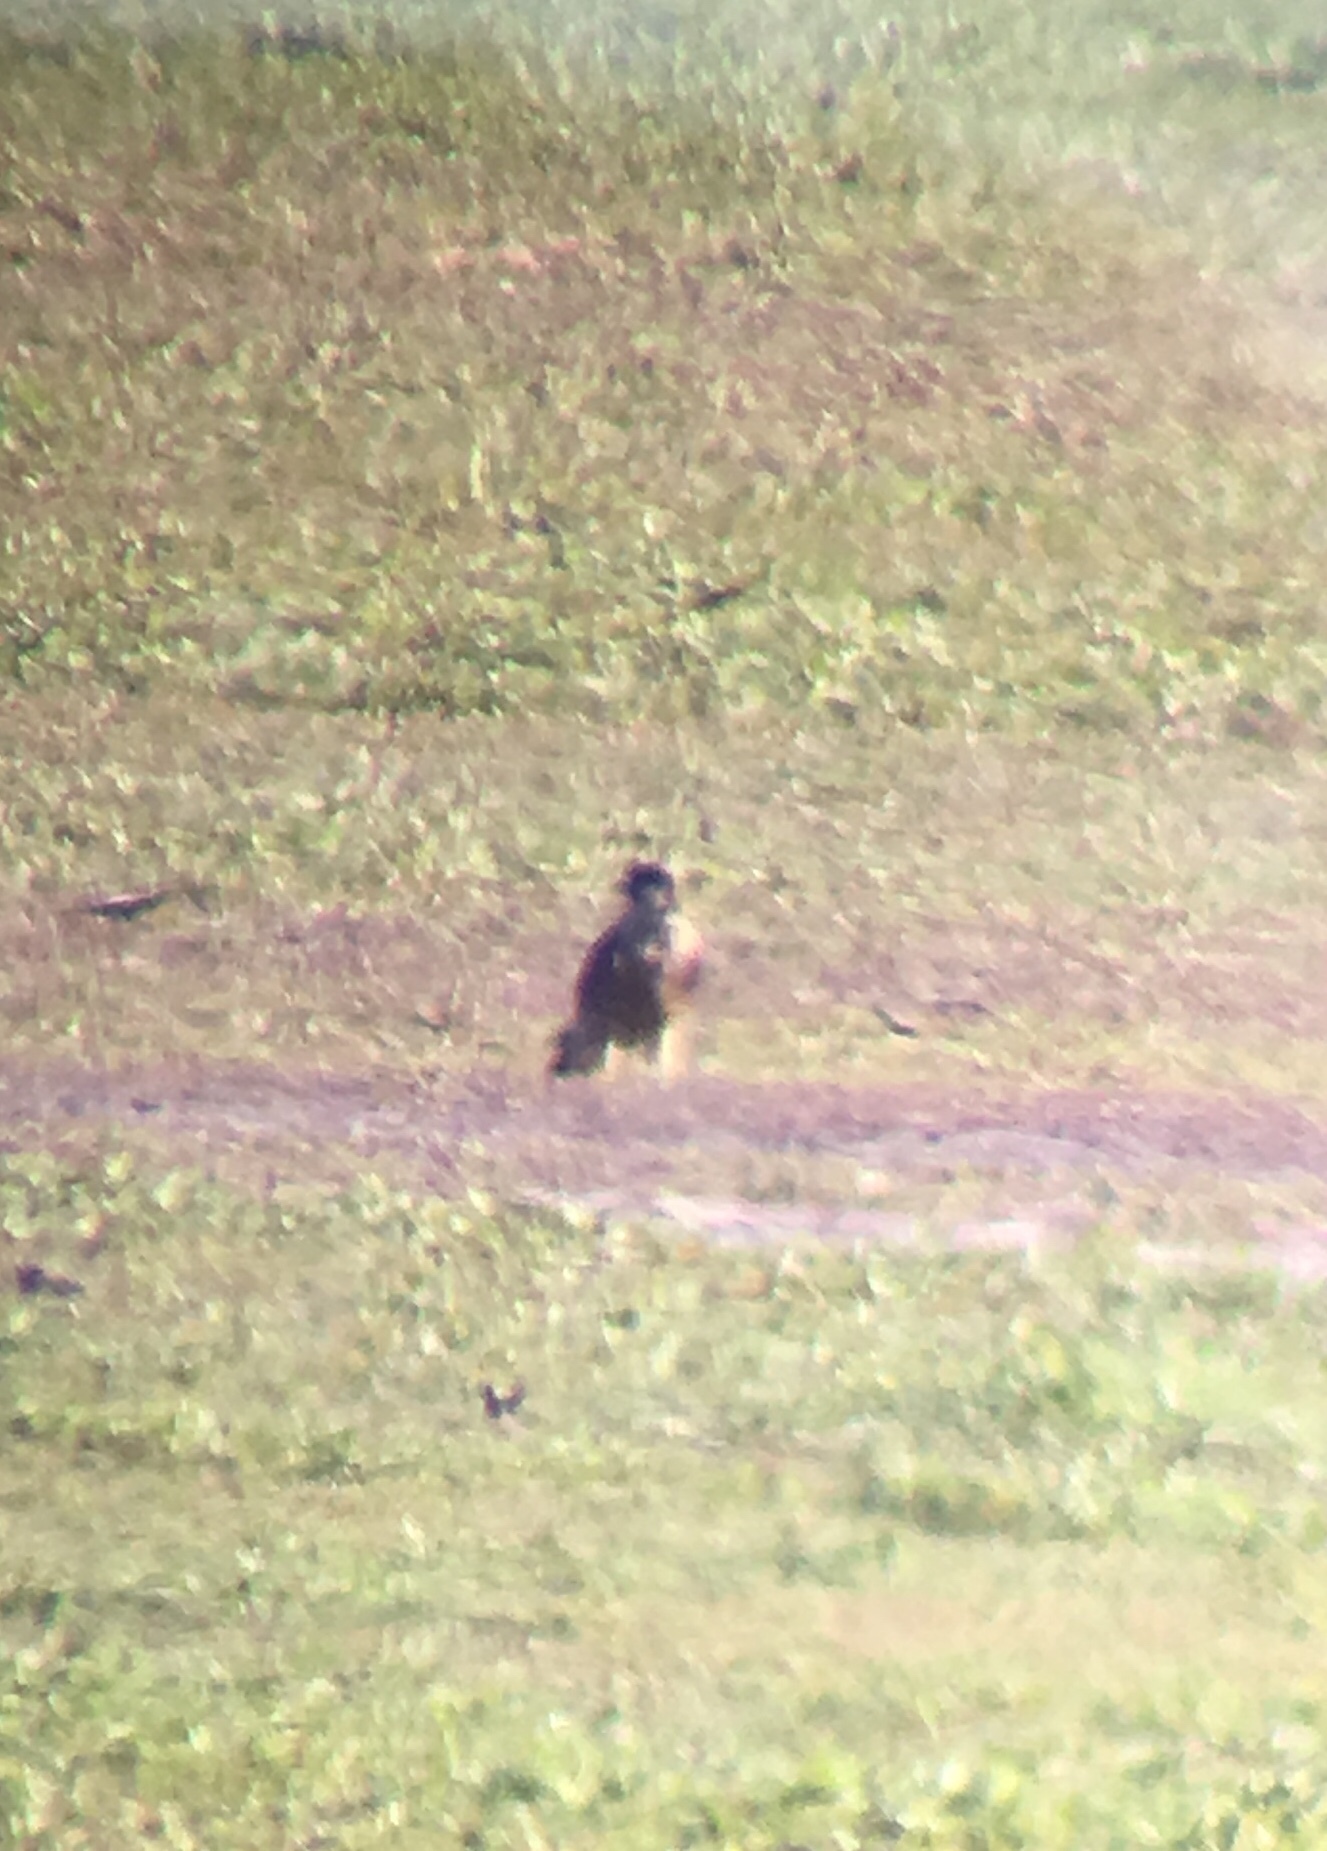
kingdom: Animalia
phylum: Chordata
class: Aves
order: Falconiformes
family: Falconidae
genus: Falco
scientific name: Falco peregrinus
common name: Peregrine falcon
